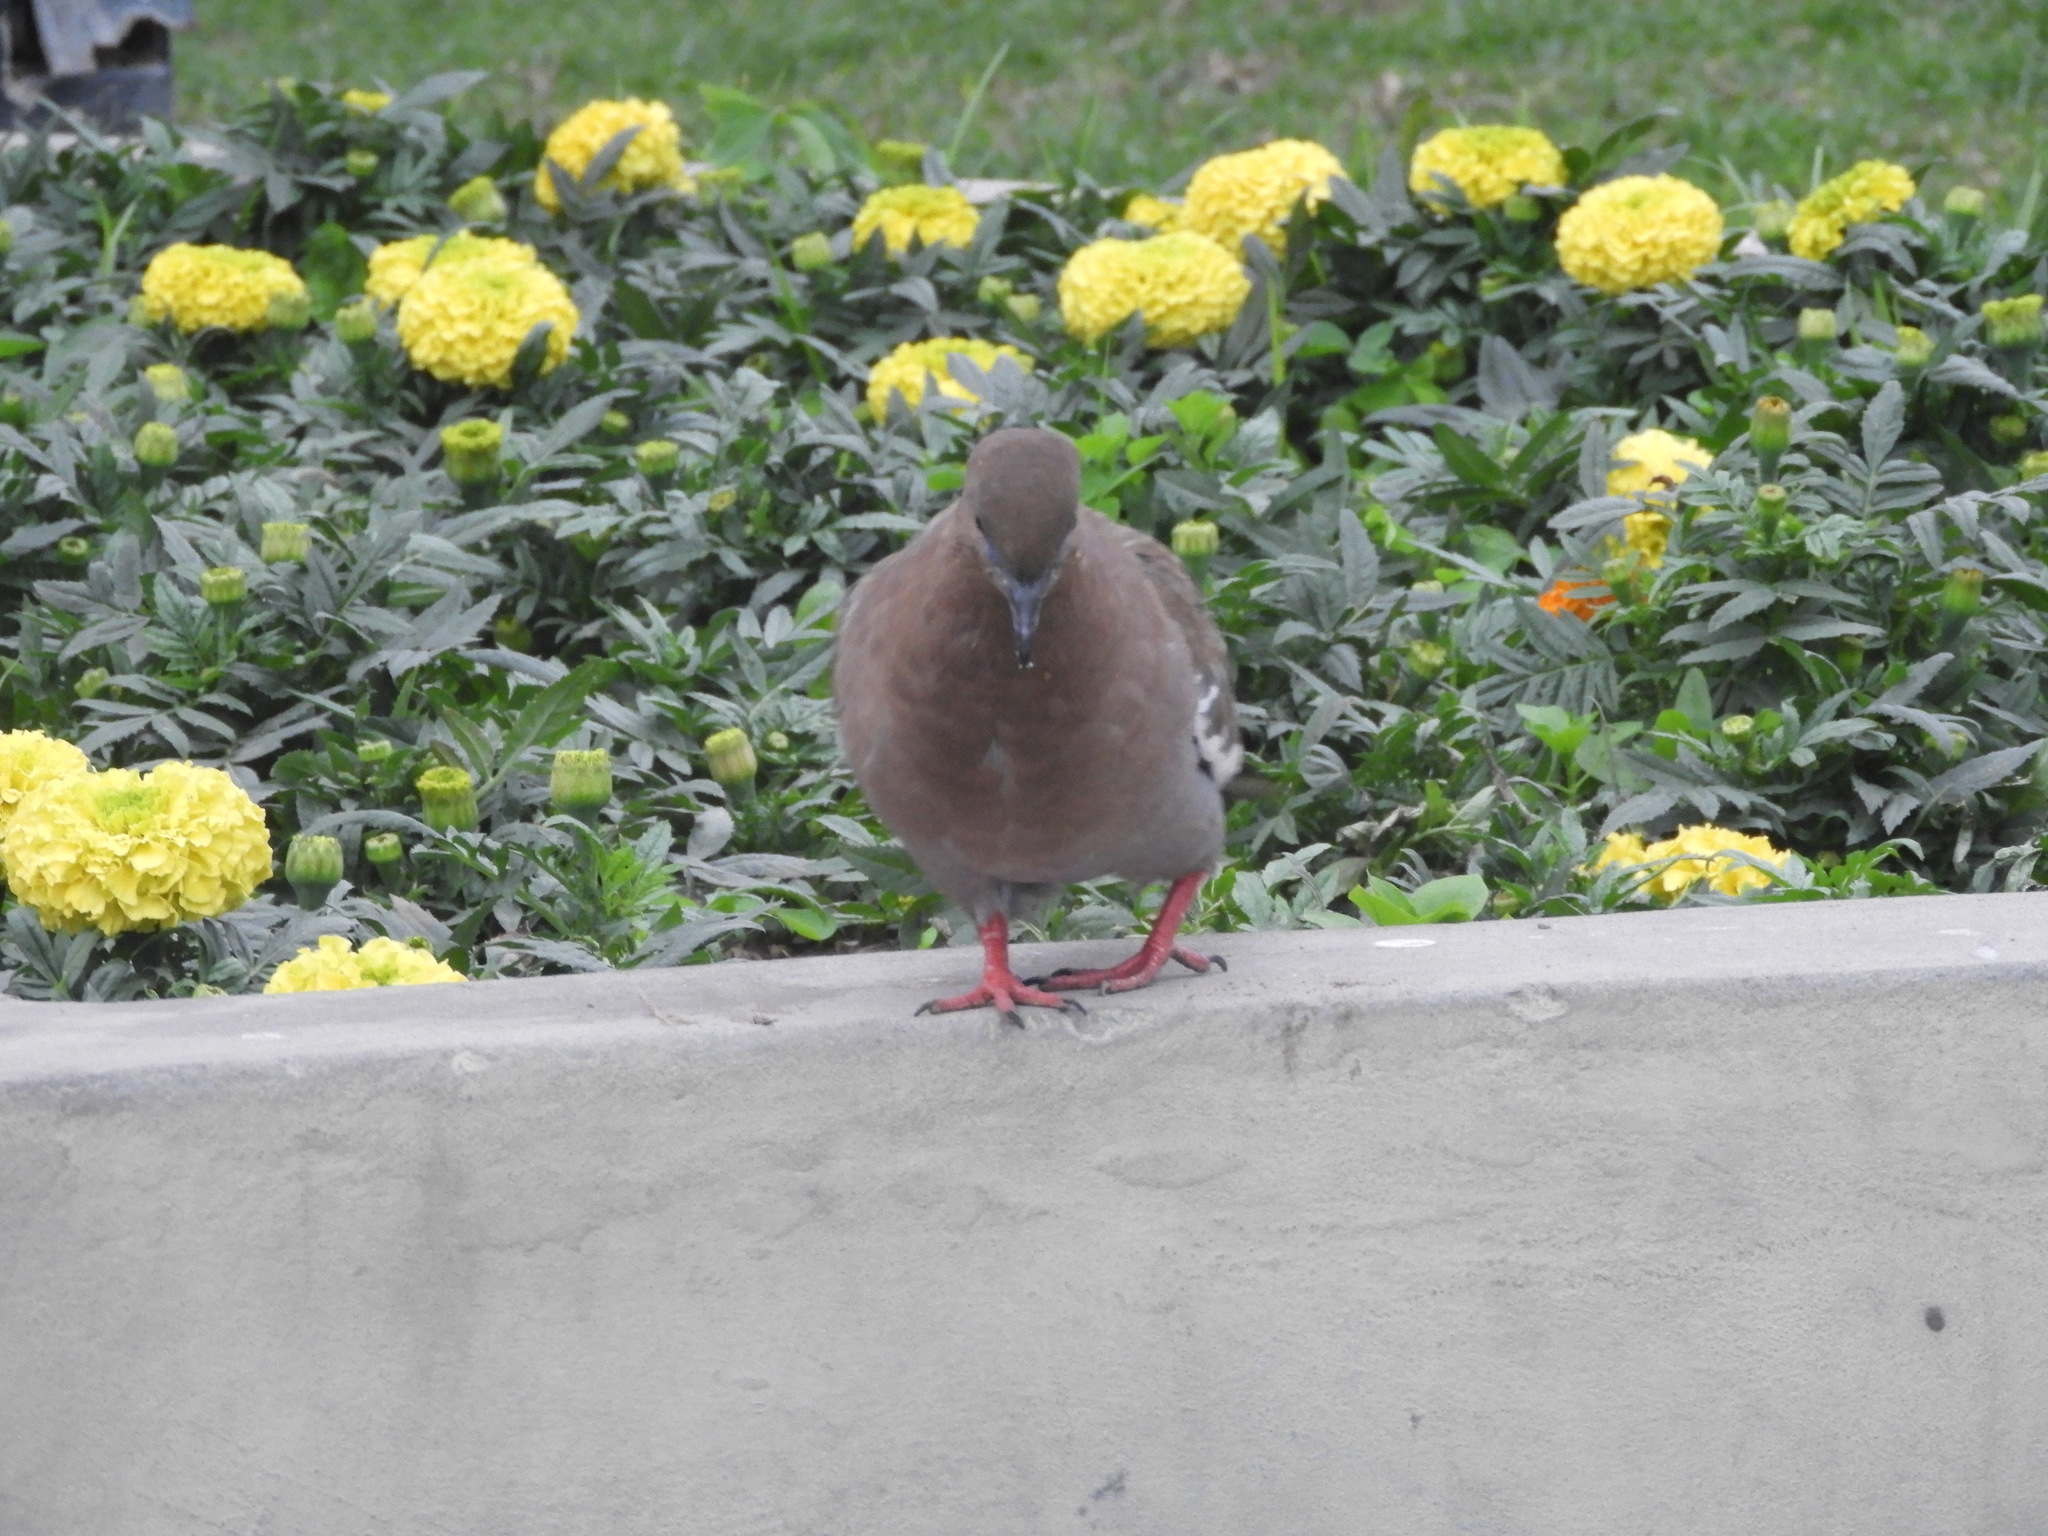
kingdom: Animalia
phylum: Chordata
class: Aves
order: Columbiformes
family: Columbidae
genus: Zenaida
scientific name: Zenaida meloda
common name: West peruvian dove
